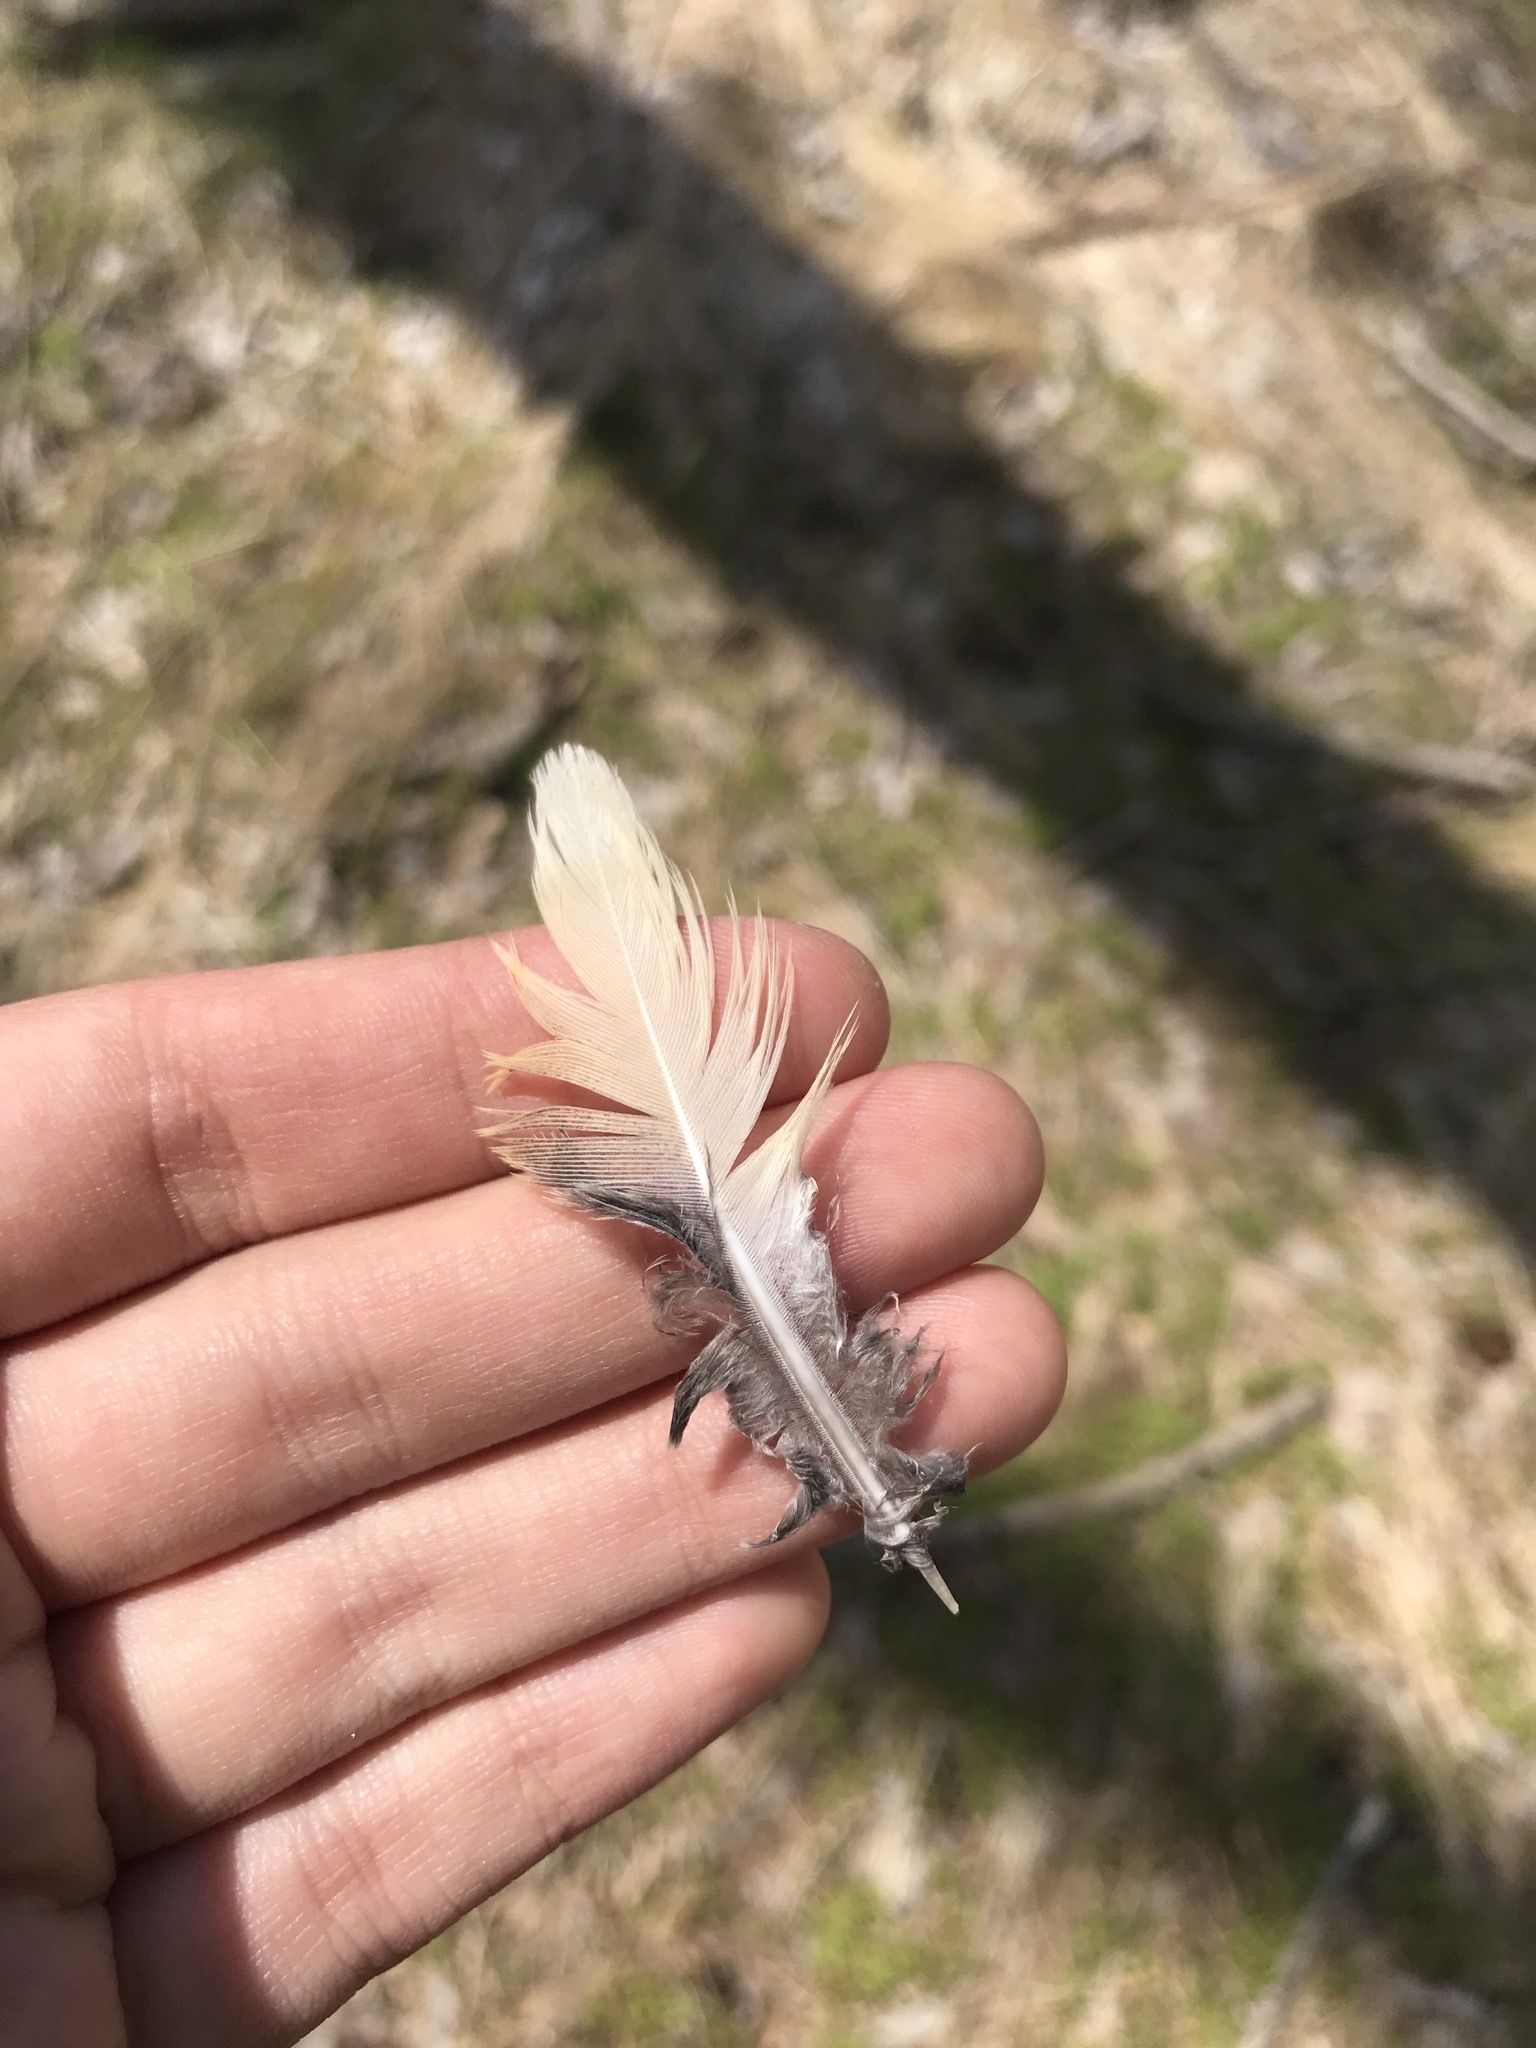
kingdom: Animalia
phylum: Chordata
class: Aves
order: Columbiformes
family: Columbidae
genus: Zenaida
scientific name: Zenaida macroura
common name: Mourning dove
